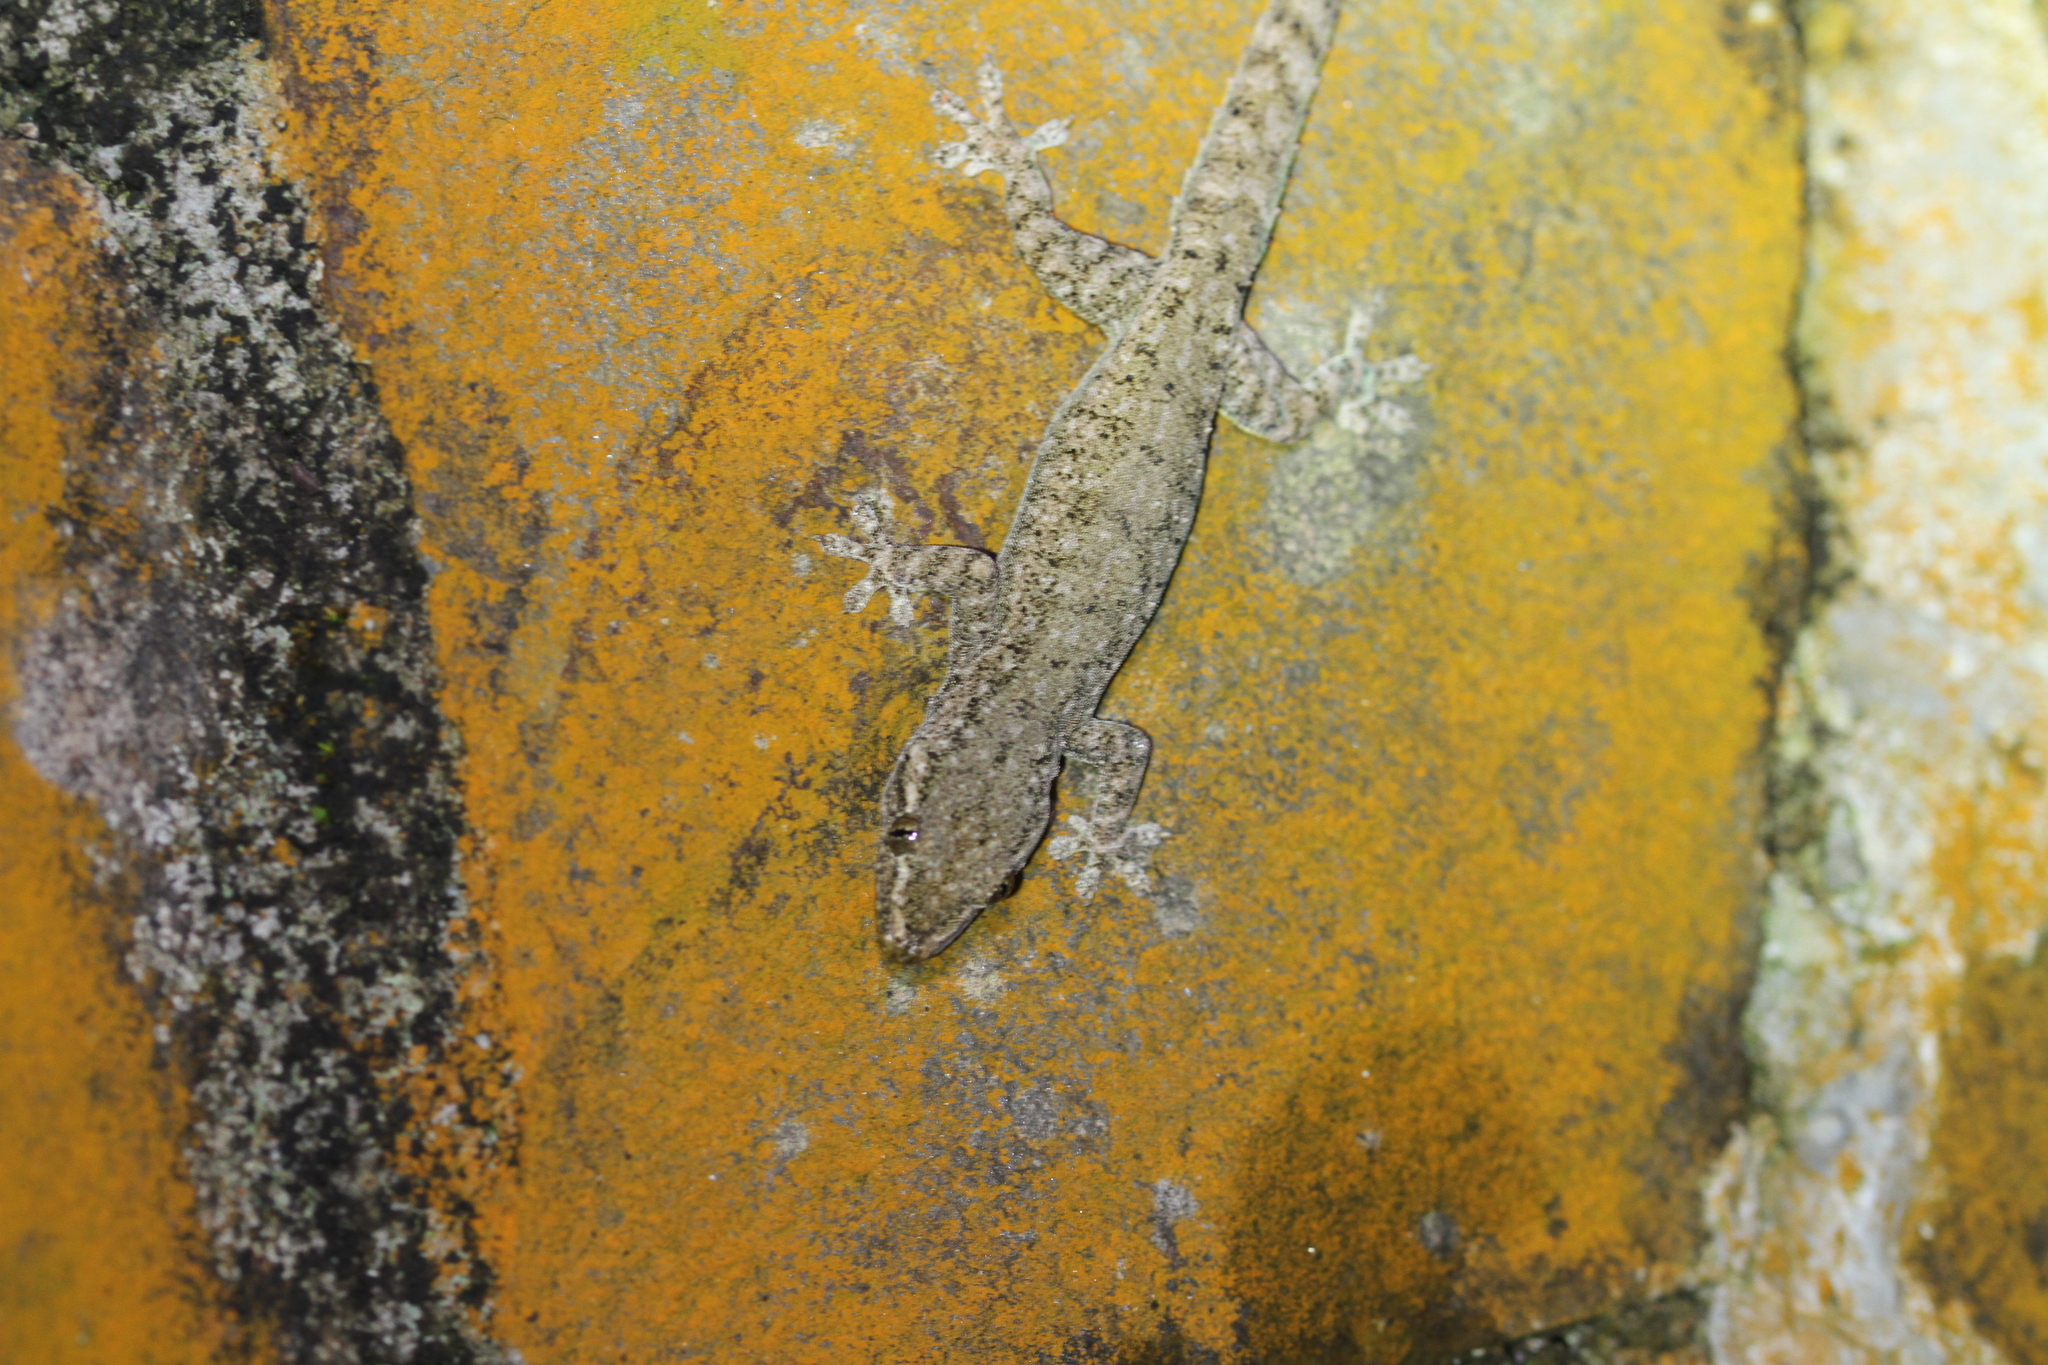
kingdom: Animalia
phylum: Chordata
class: Squamata
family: Gekkonidae
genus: Hemidactylus
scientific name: Hemidactylus frenatus
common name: Common house gecko
